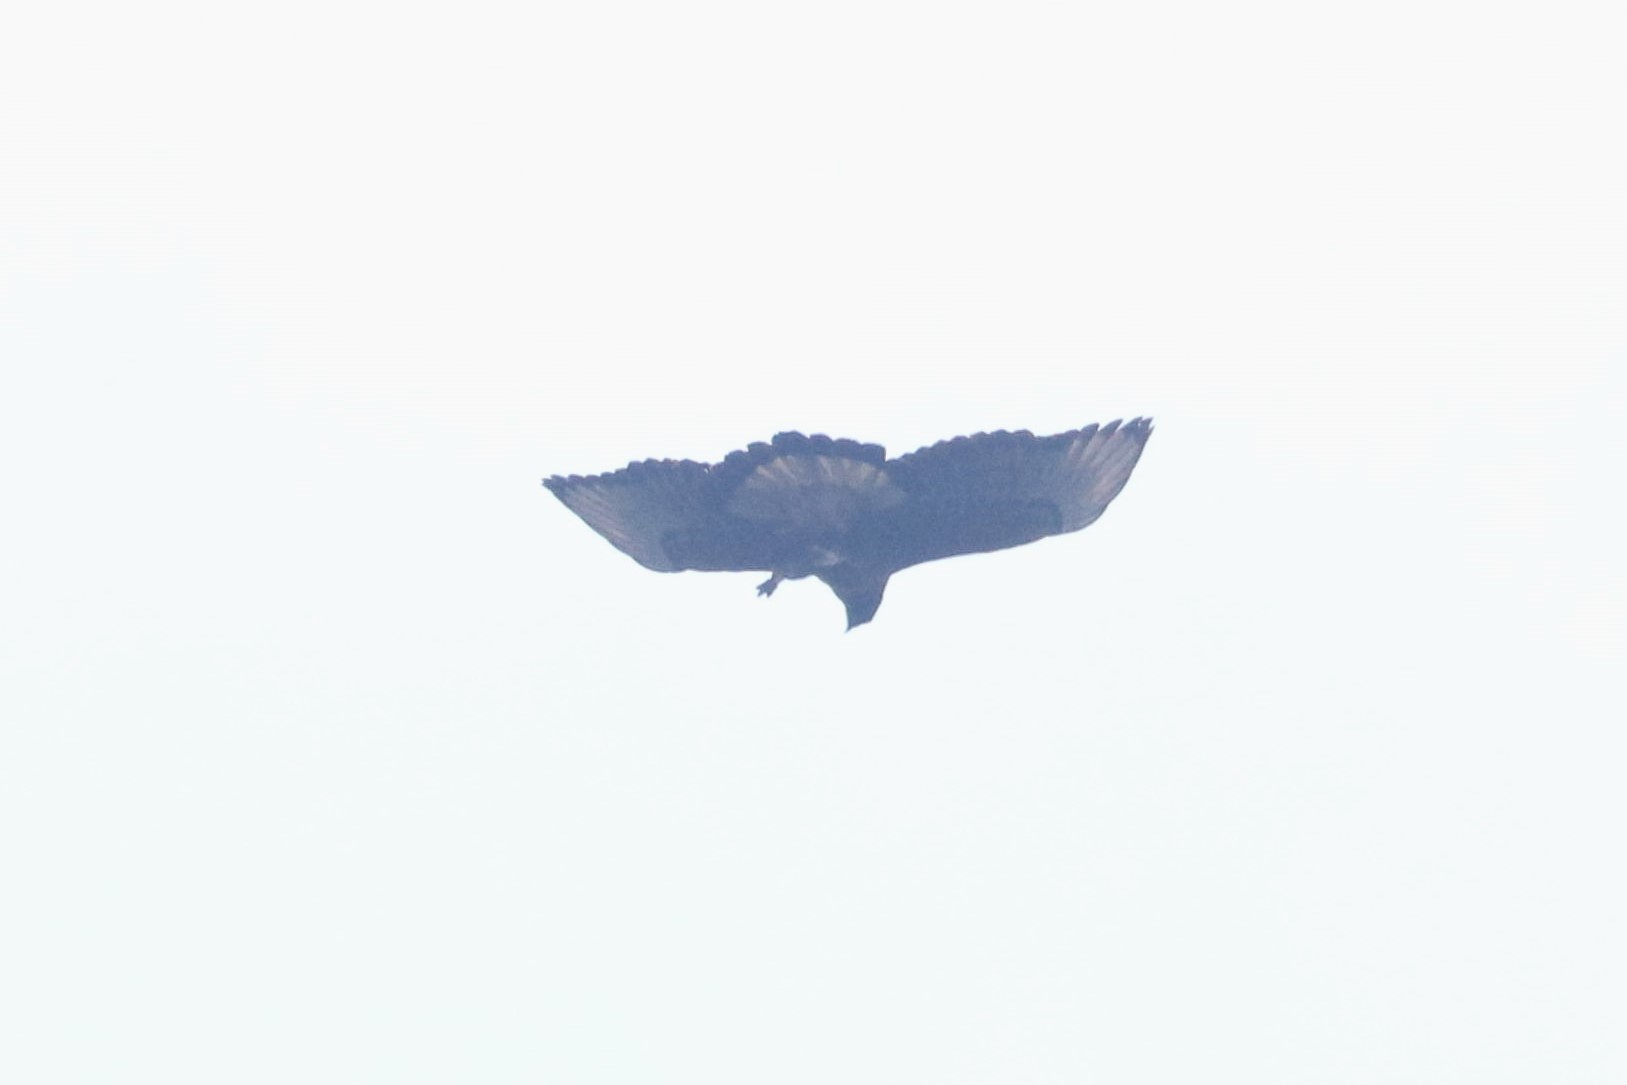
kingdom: Animalia
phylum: Chordata
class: Aves
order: Accipitriformes
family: Accipitridae
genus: Spizaetus
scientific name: Spizaetus isidori
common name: Black-and-chestnut eagle
